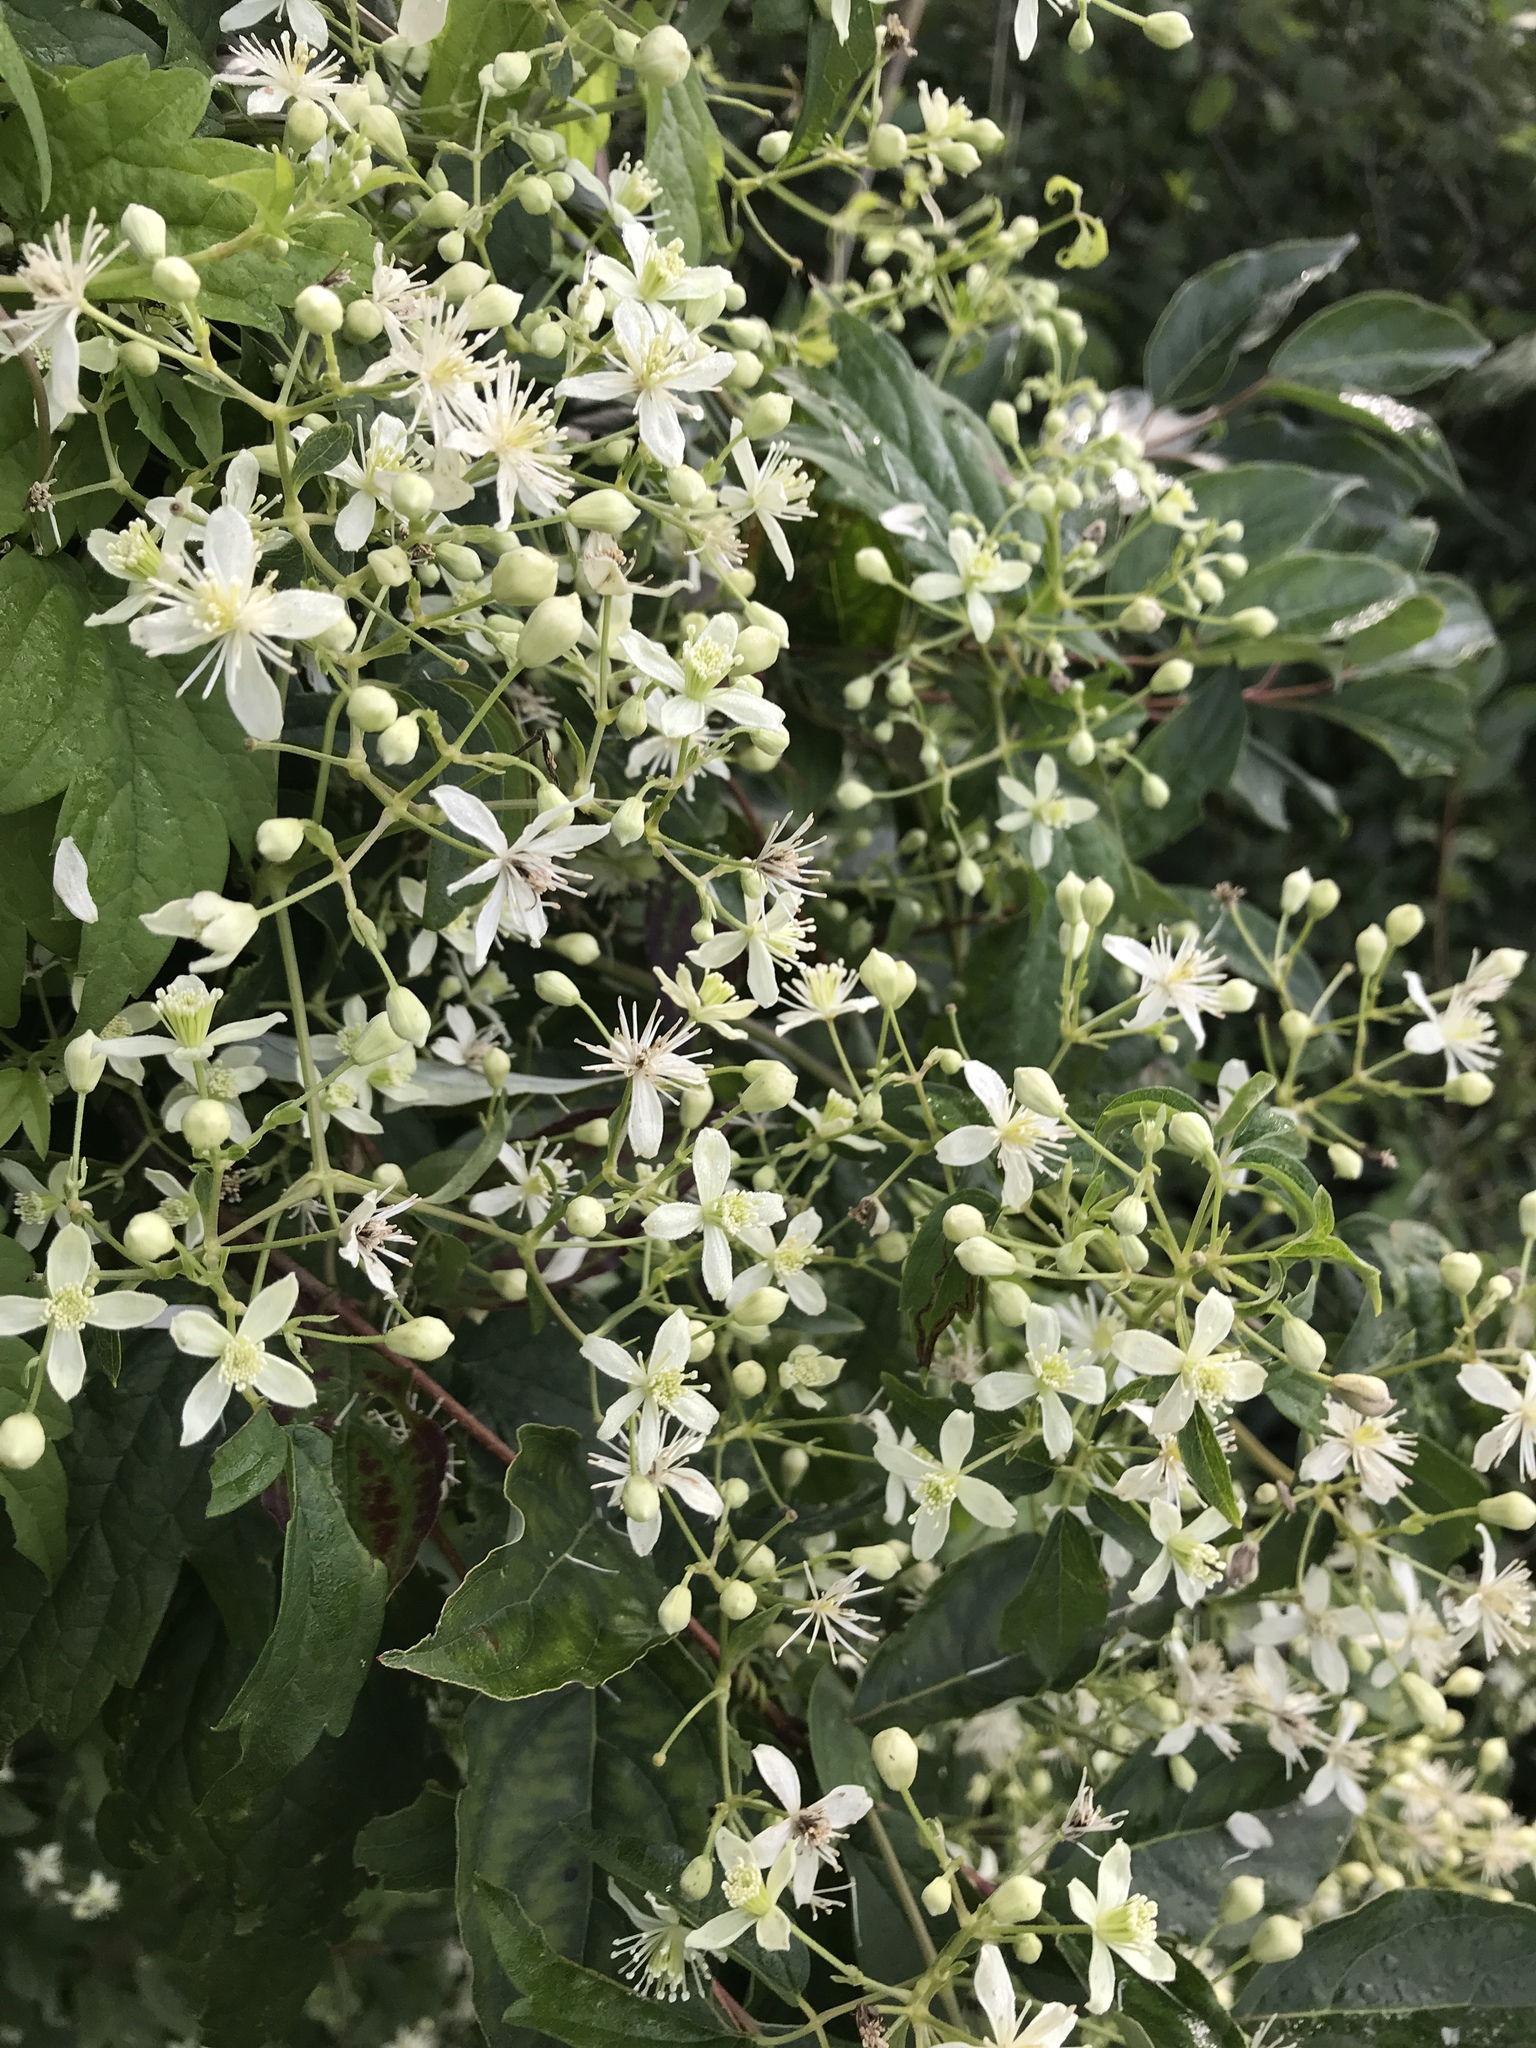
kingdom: Plantae
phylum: Tracheophyta
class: Magnoliopsida
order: Ranunculales
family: Ranunculaceae
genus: Clematis
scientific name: Clematis virginiana
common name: Virgin's-bower
